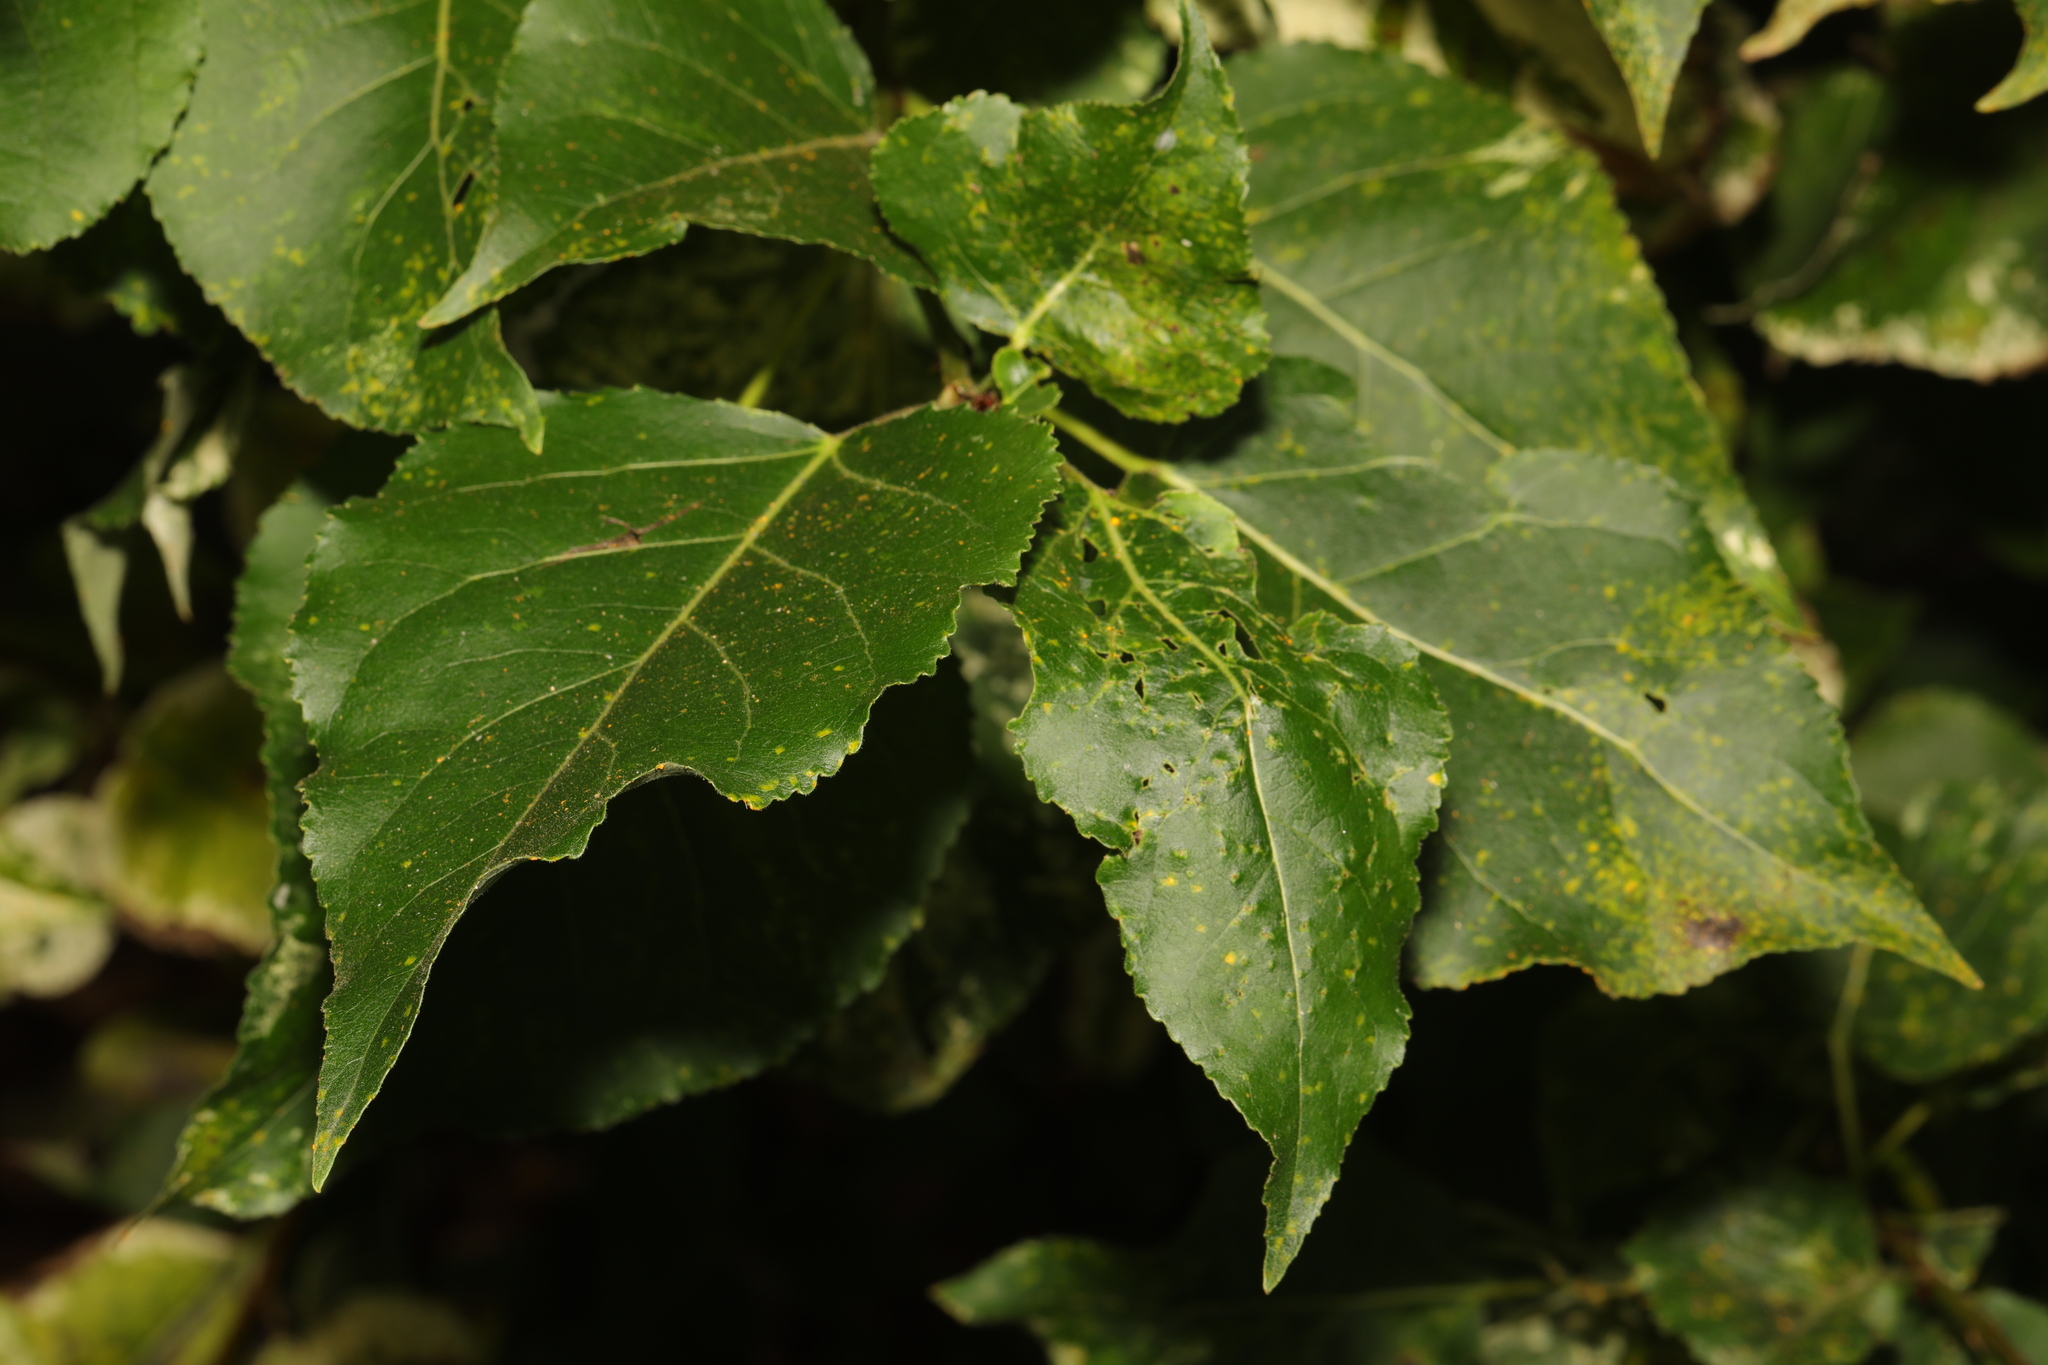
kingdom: Plantae
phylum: Tracheophyta
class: Magnoliopsida
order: Malpighiales
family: Salicaceae
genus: Populus
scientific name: Populus jackii
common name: Balm-of-gilead
